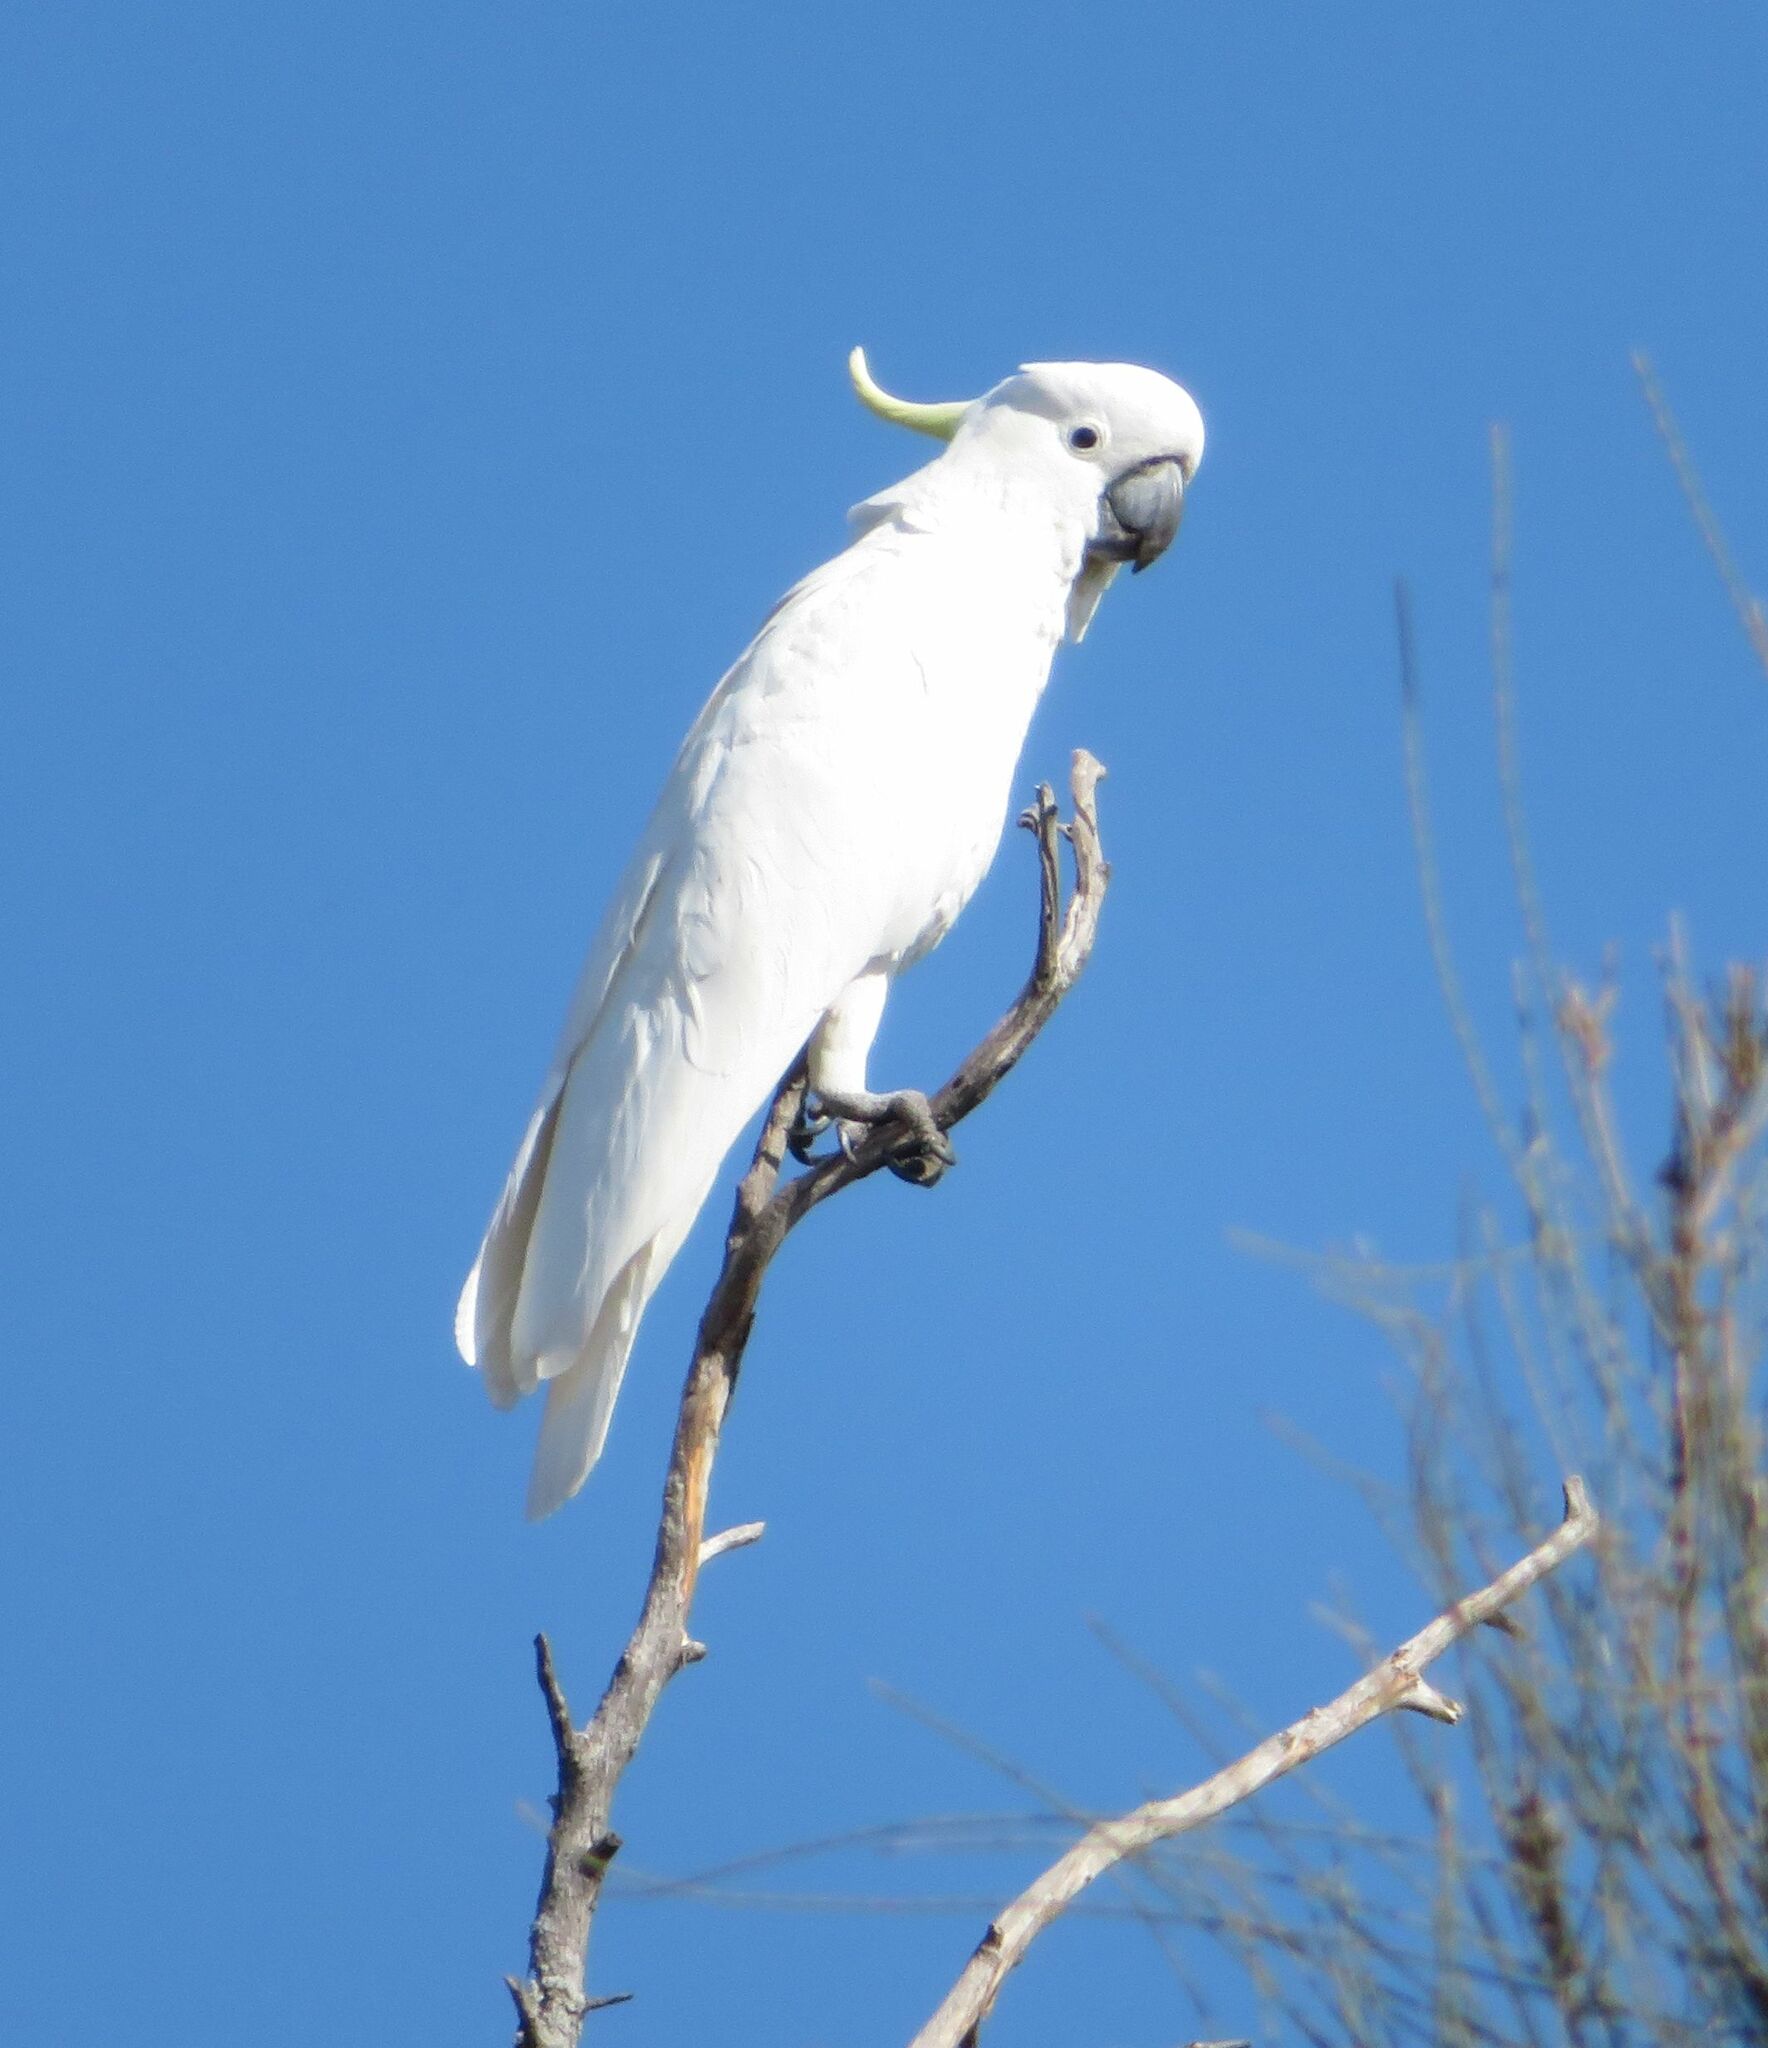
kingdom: Animalia
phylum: Chordata
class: Aves
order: Psittaciformes
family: Psittacidae
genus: Cacatua
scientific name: Cacatua galerita
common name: Sulphur-crested cockatoo
